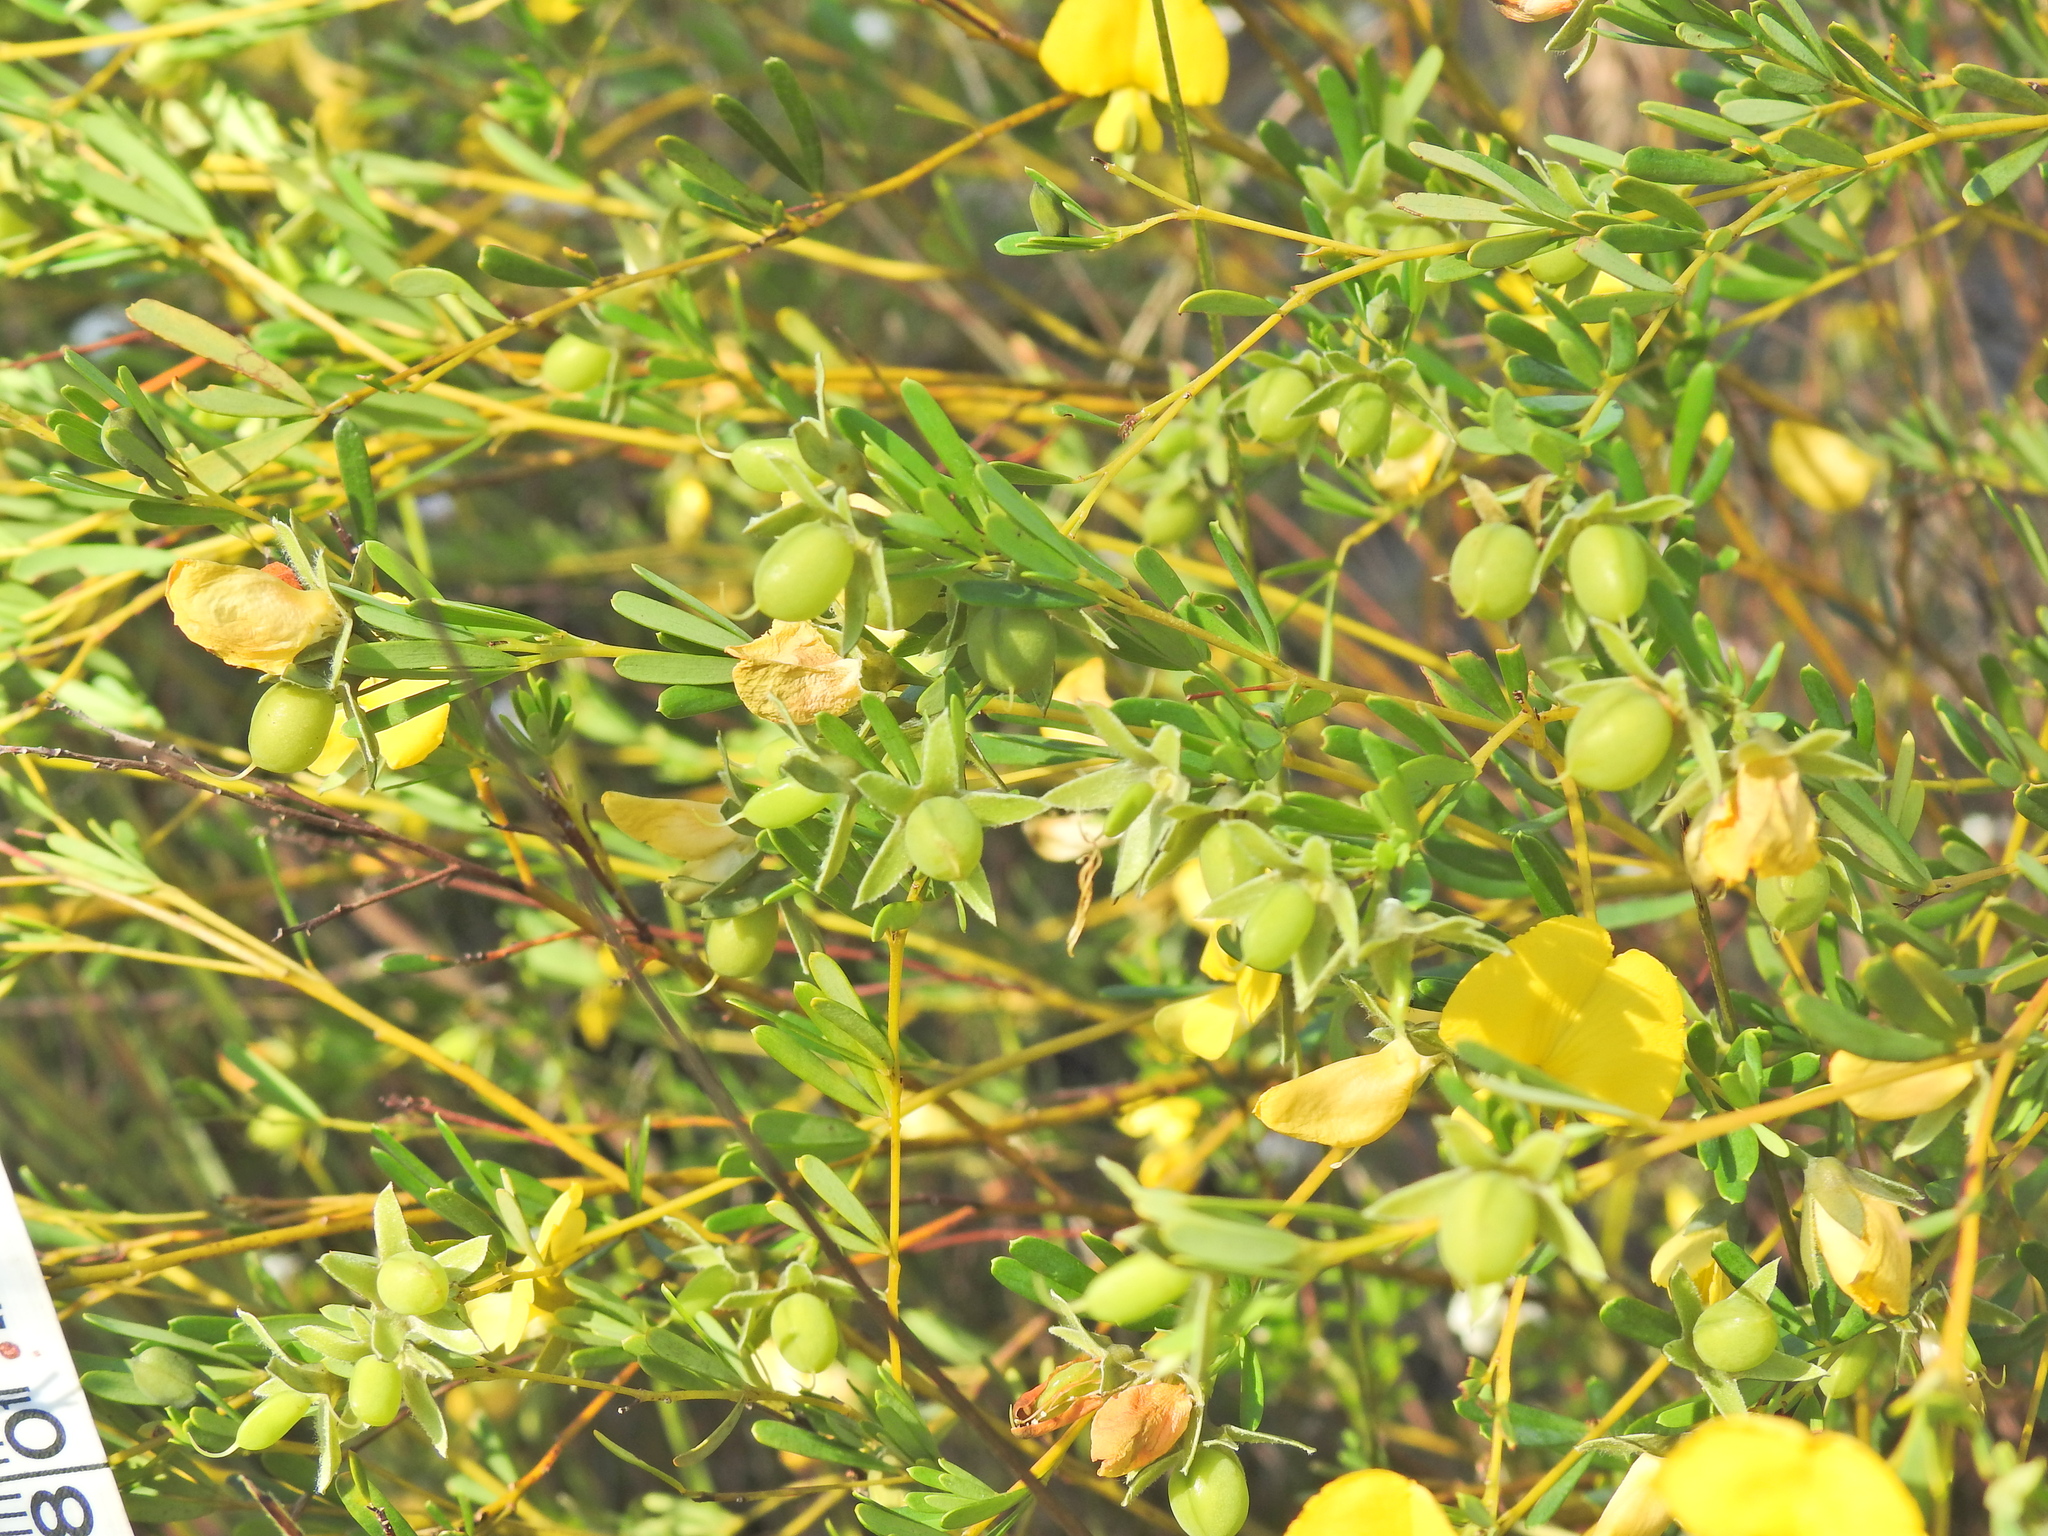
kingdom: Plantae
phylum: Tracheophyta
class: Magnoliopsida
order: Fabales
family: Fabaceae
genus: Gompholobium
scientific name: Gompholobium virgatum
